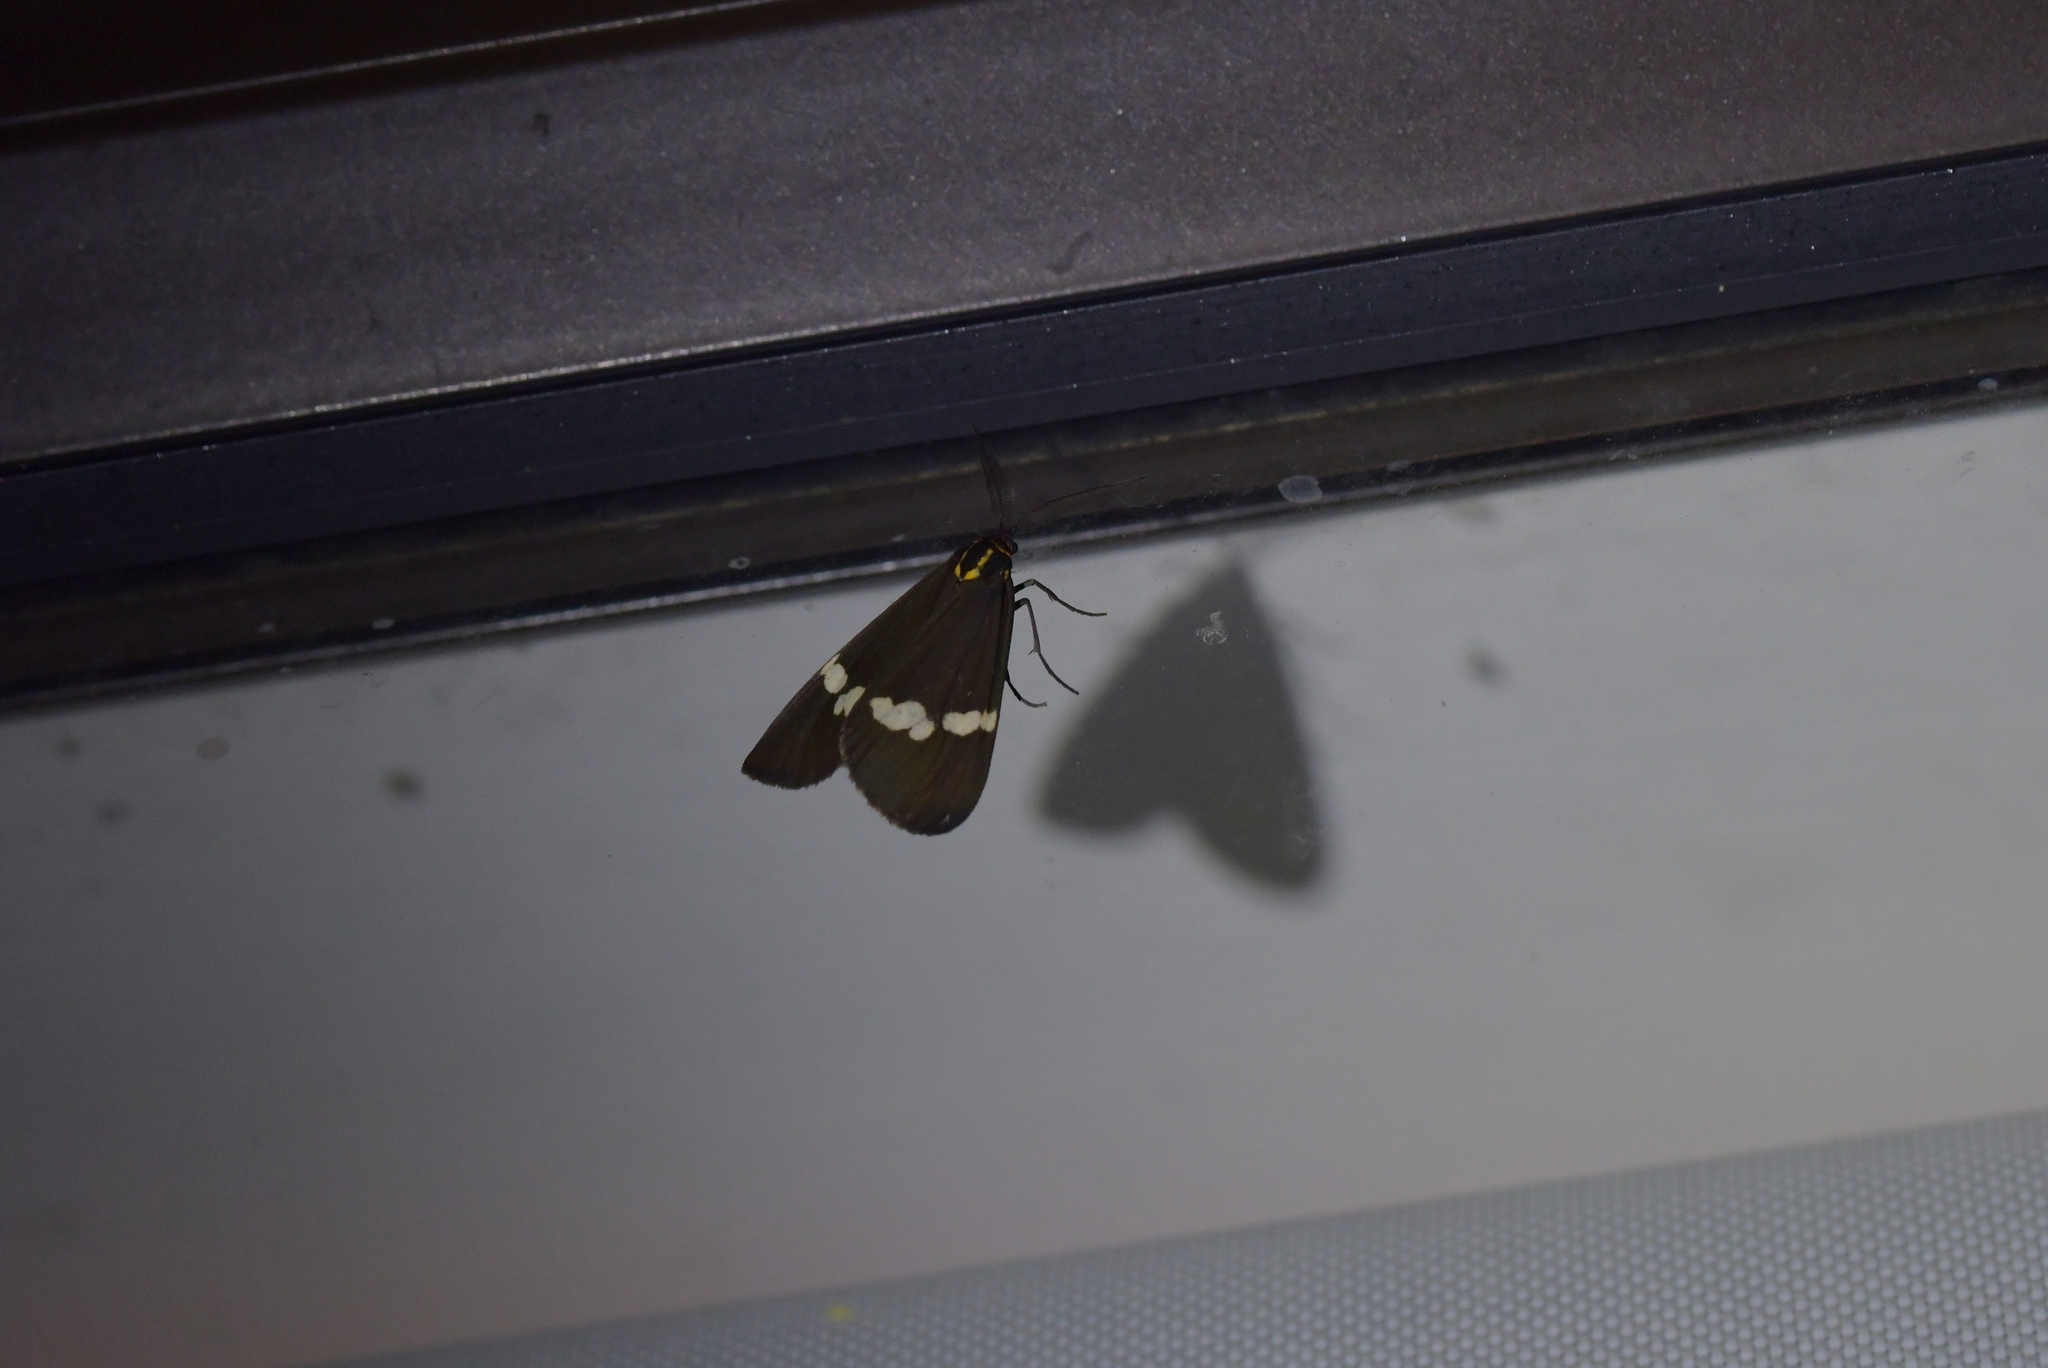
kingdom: Animalia
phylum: Arthropoda
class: Insecta
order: Lepidoptera
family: Erebidae
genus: Nyctemera
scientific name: Nyctemera annulatum
